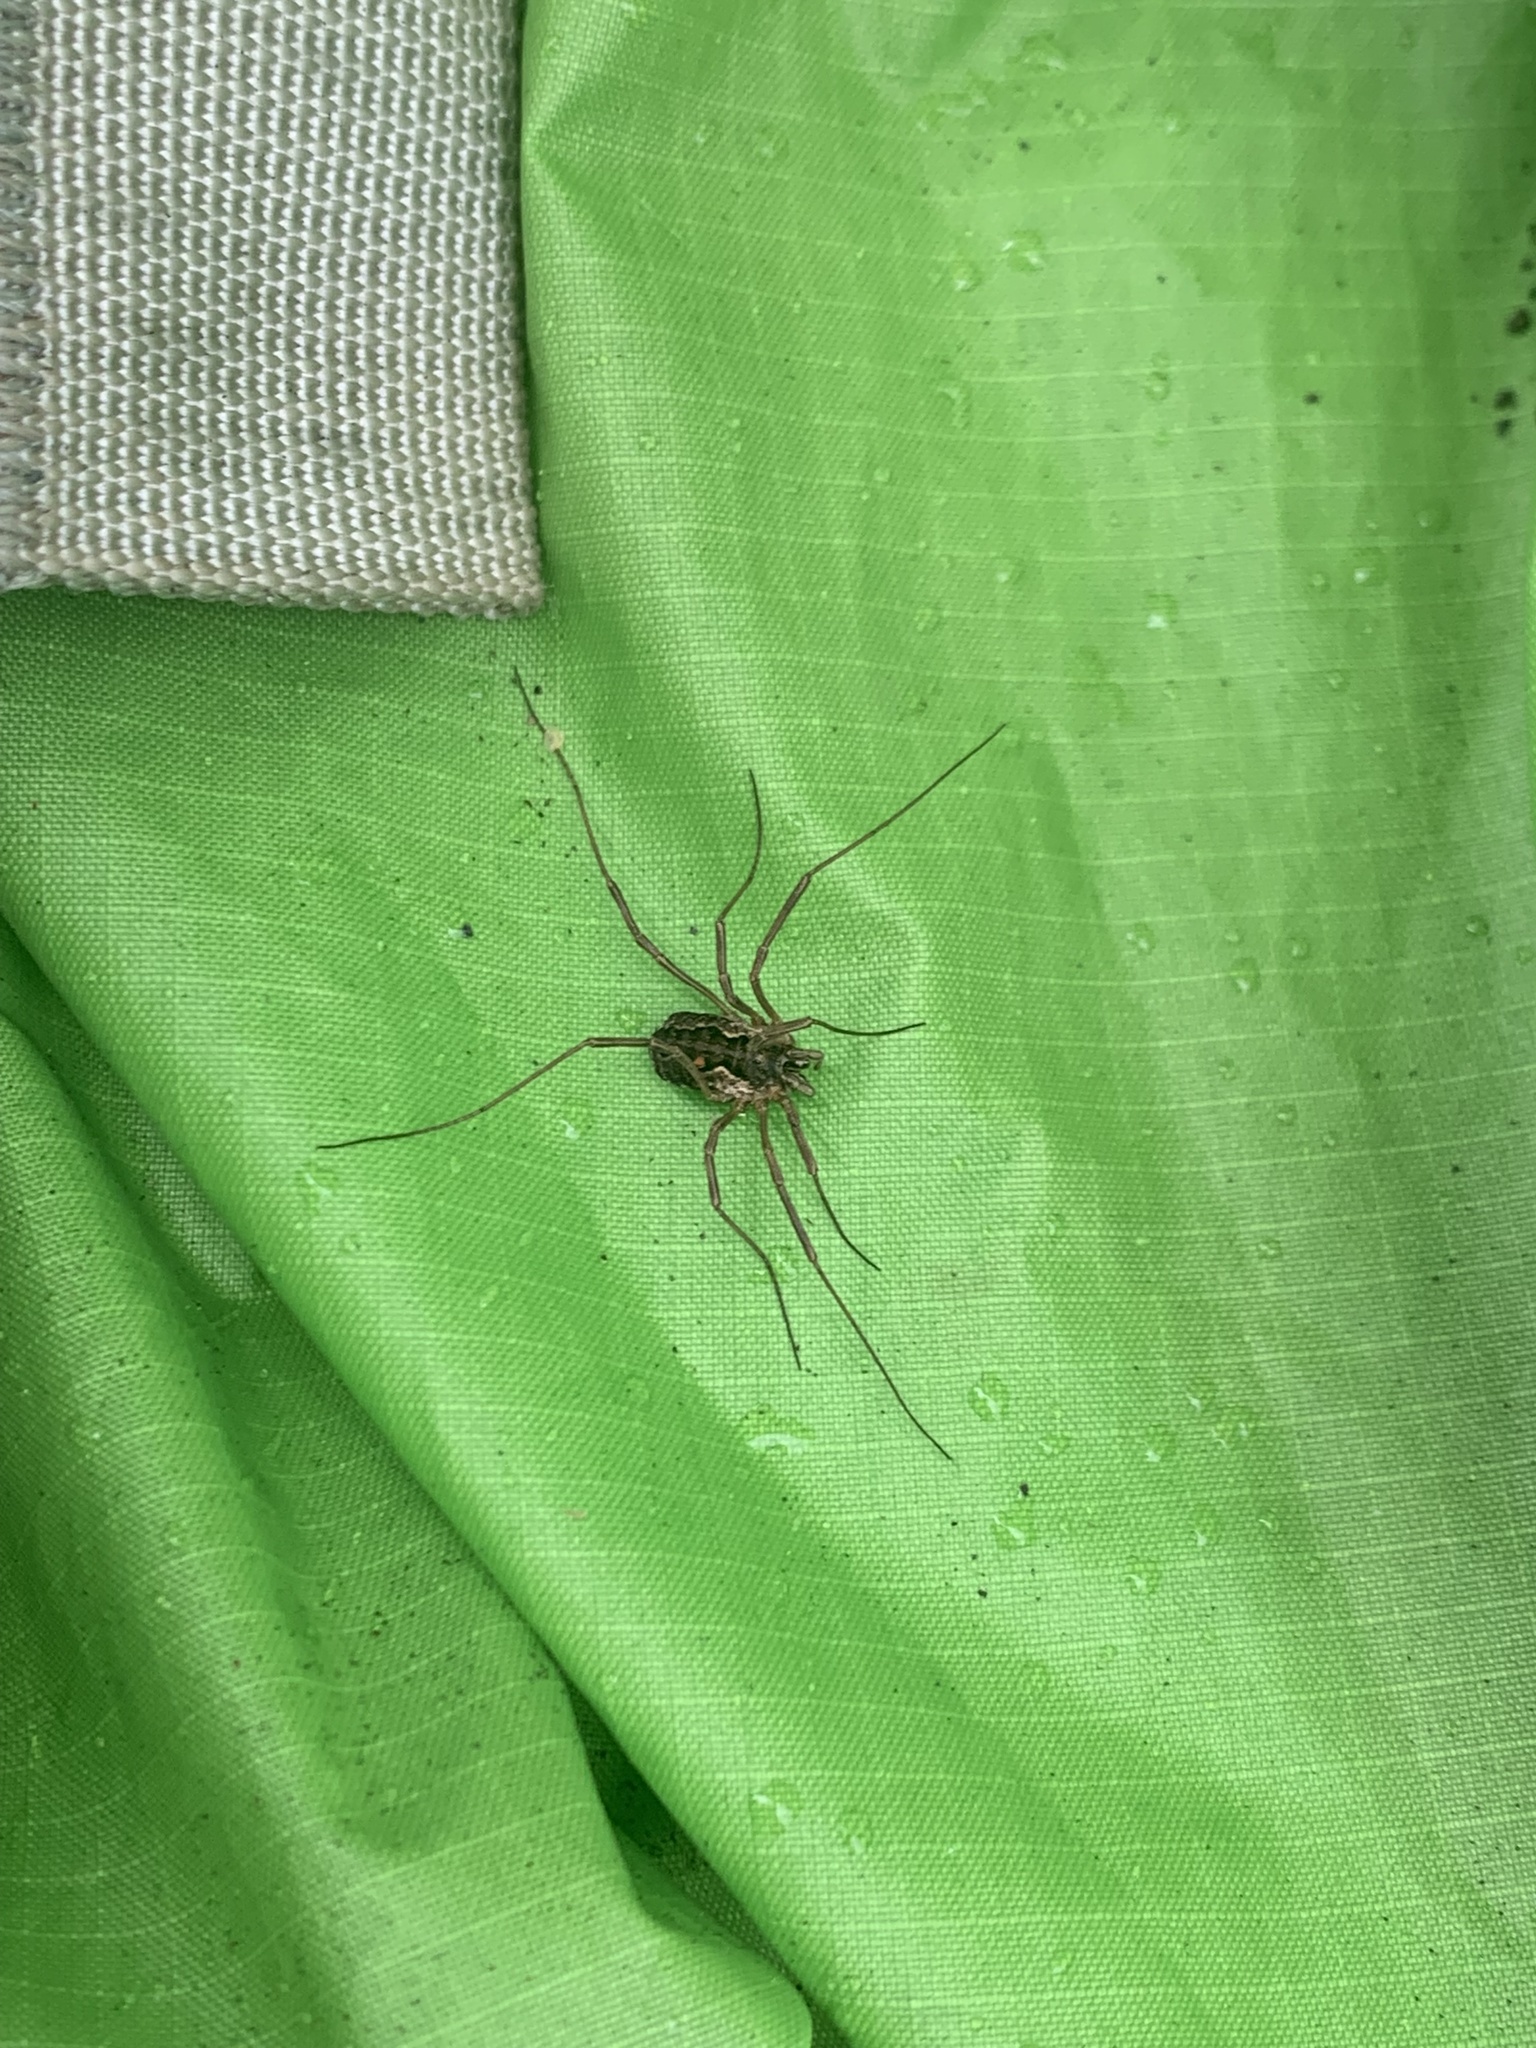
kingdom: Animalia
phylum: Arthropoda
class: Arachnida
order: Opiliones
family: Phalangiidae
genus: Mitopus
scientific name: Mitopus morio
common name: Saddleback harvestman
